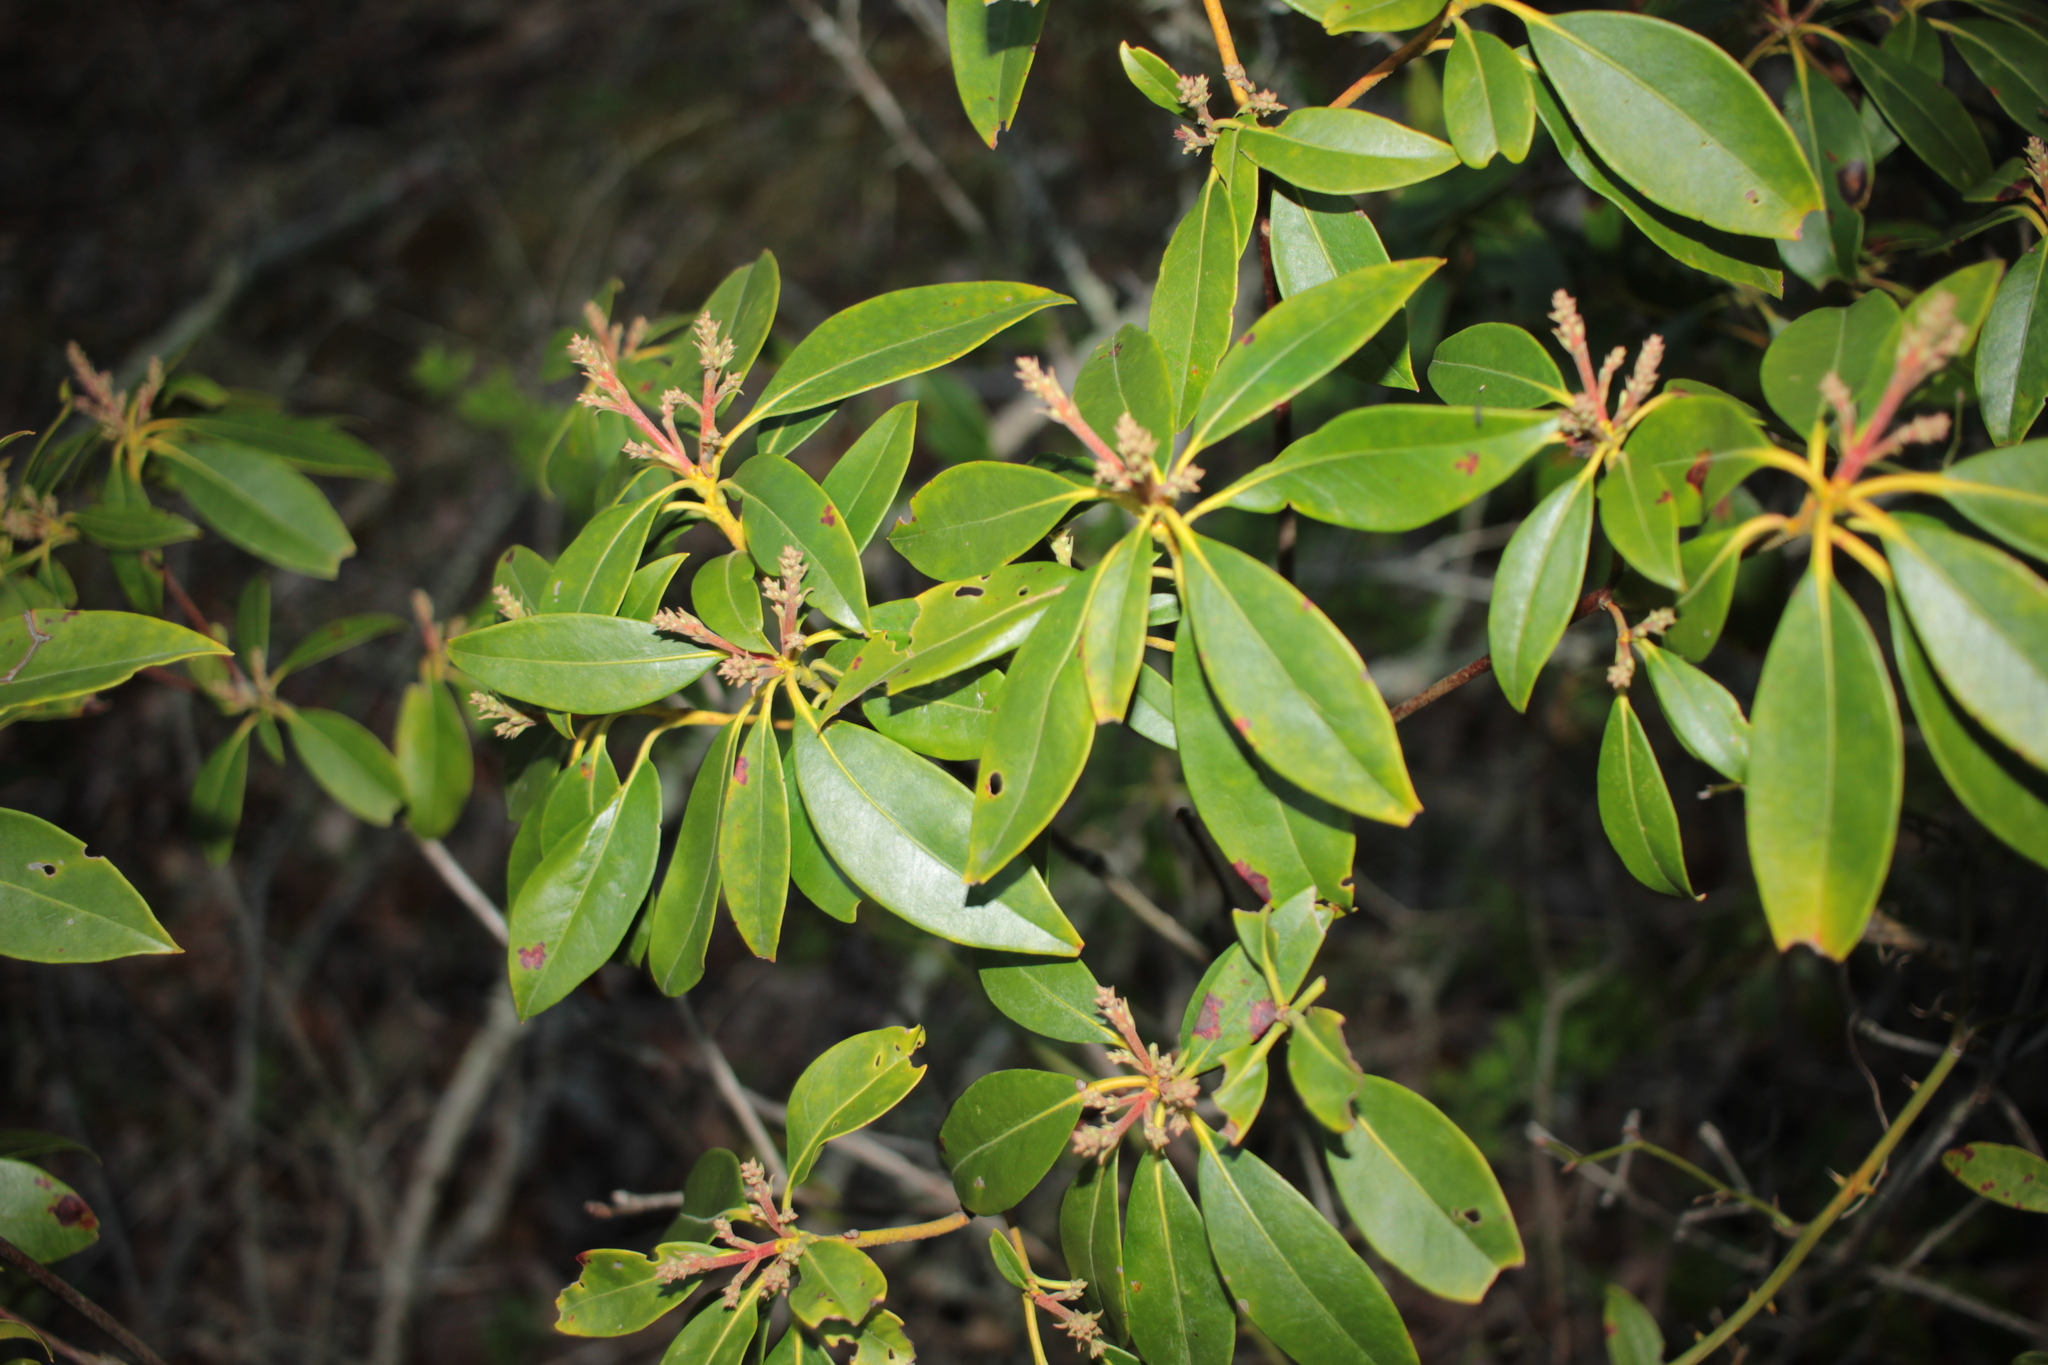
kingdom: Plantae
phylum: Tracheophyta
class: Magnoliopsida
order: Ericales
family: Ericaceae
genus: Kalmia
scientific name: Kalmia latifolia
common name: Mountain-laurel
